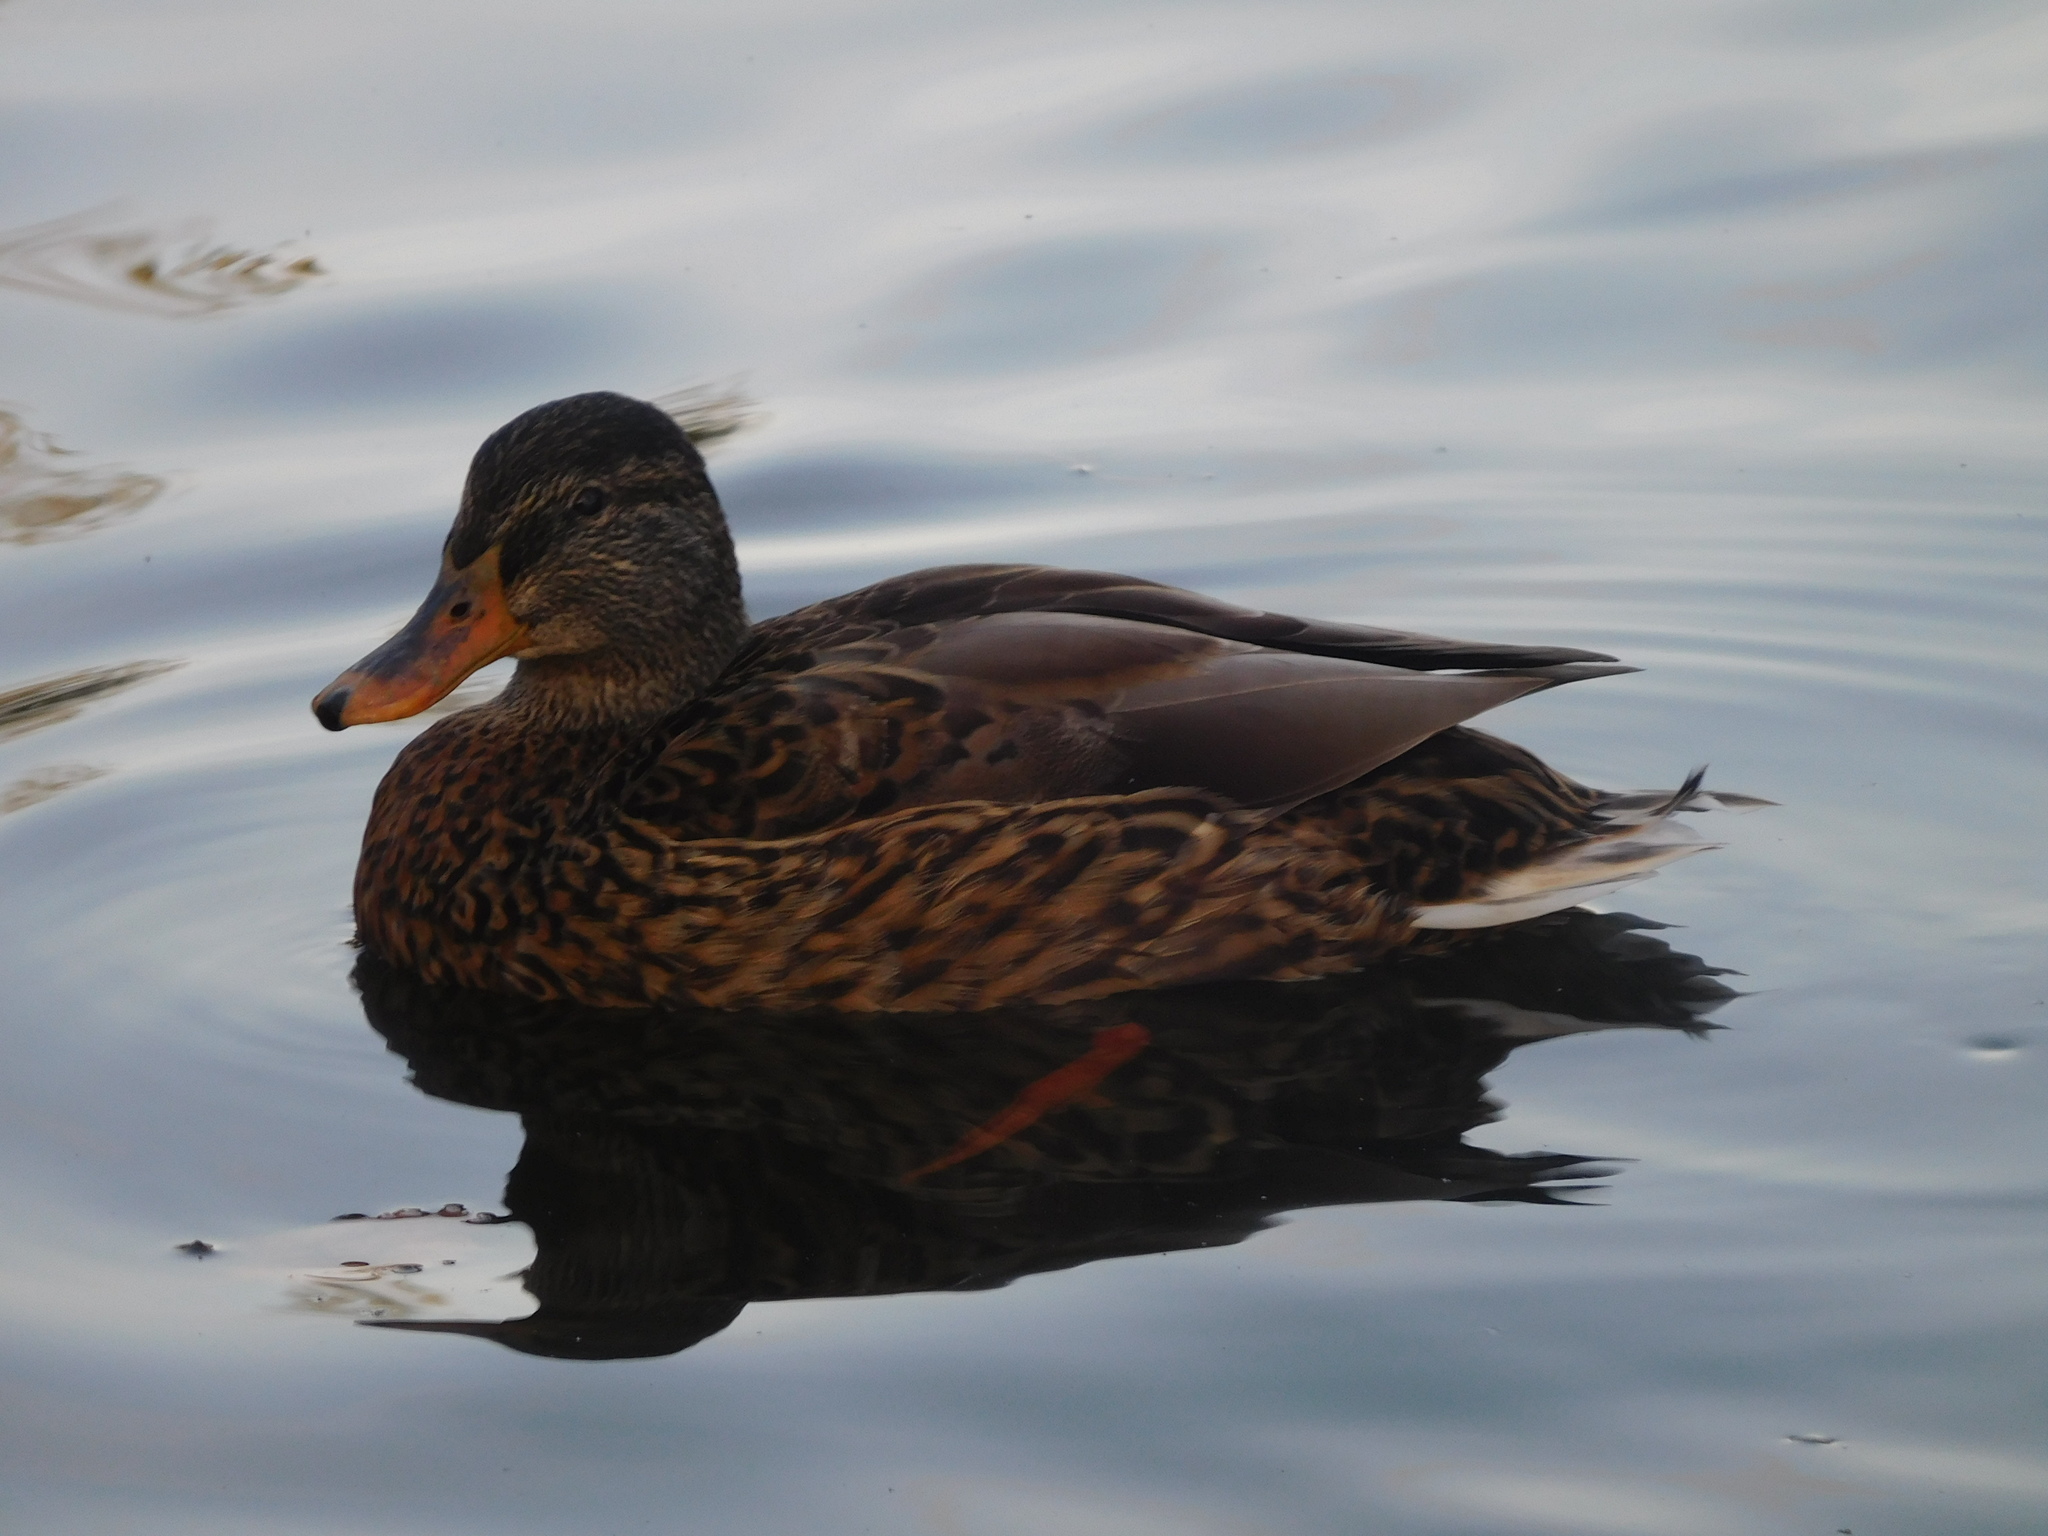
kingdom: Animalia
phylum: Chordata
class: Aves
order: Anseriformes
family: Anatidae
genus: Anas
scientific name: Anas platyrhynchos
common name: Mallard
